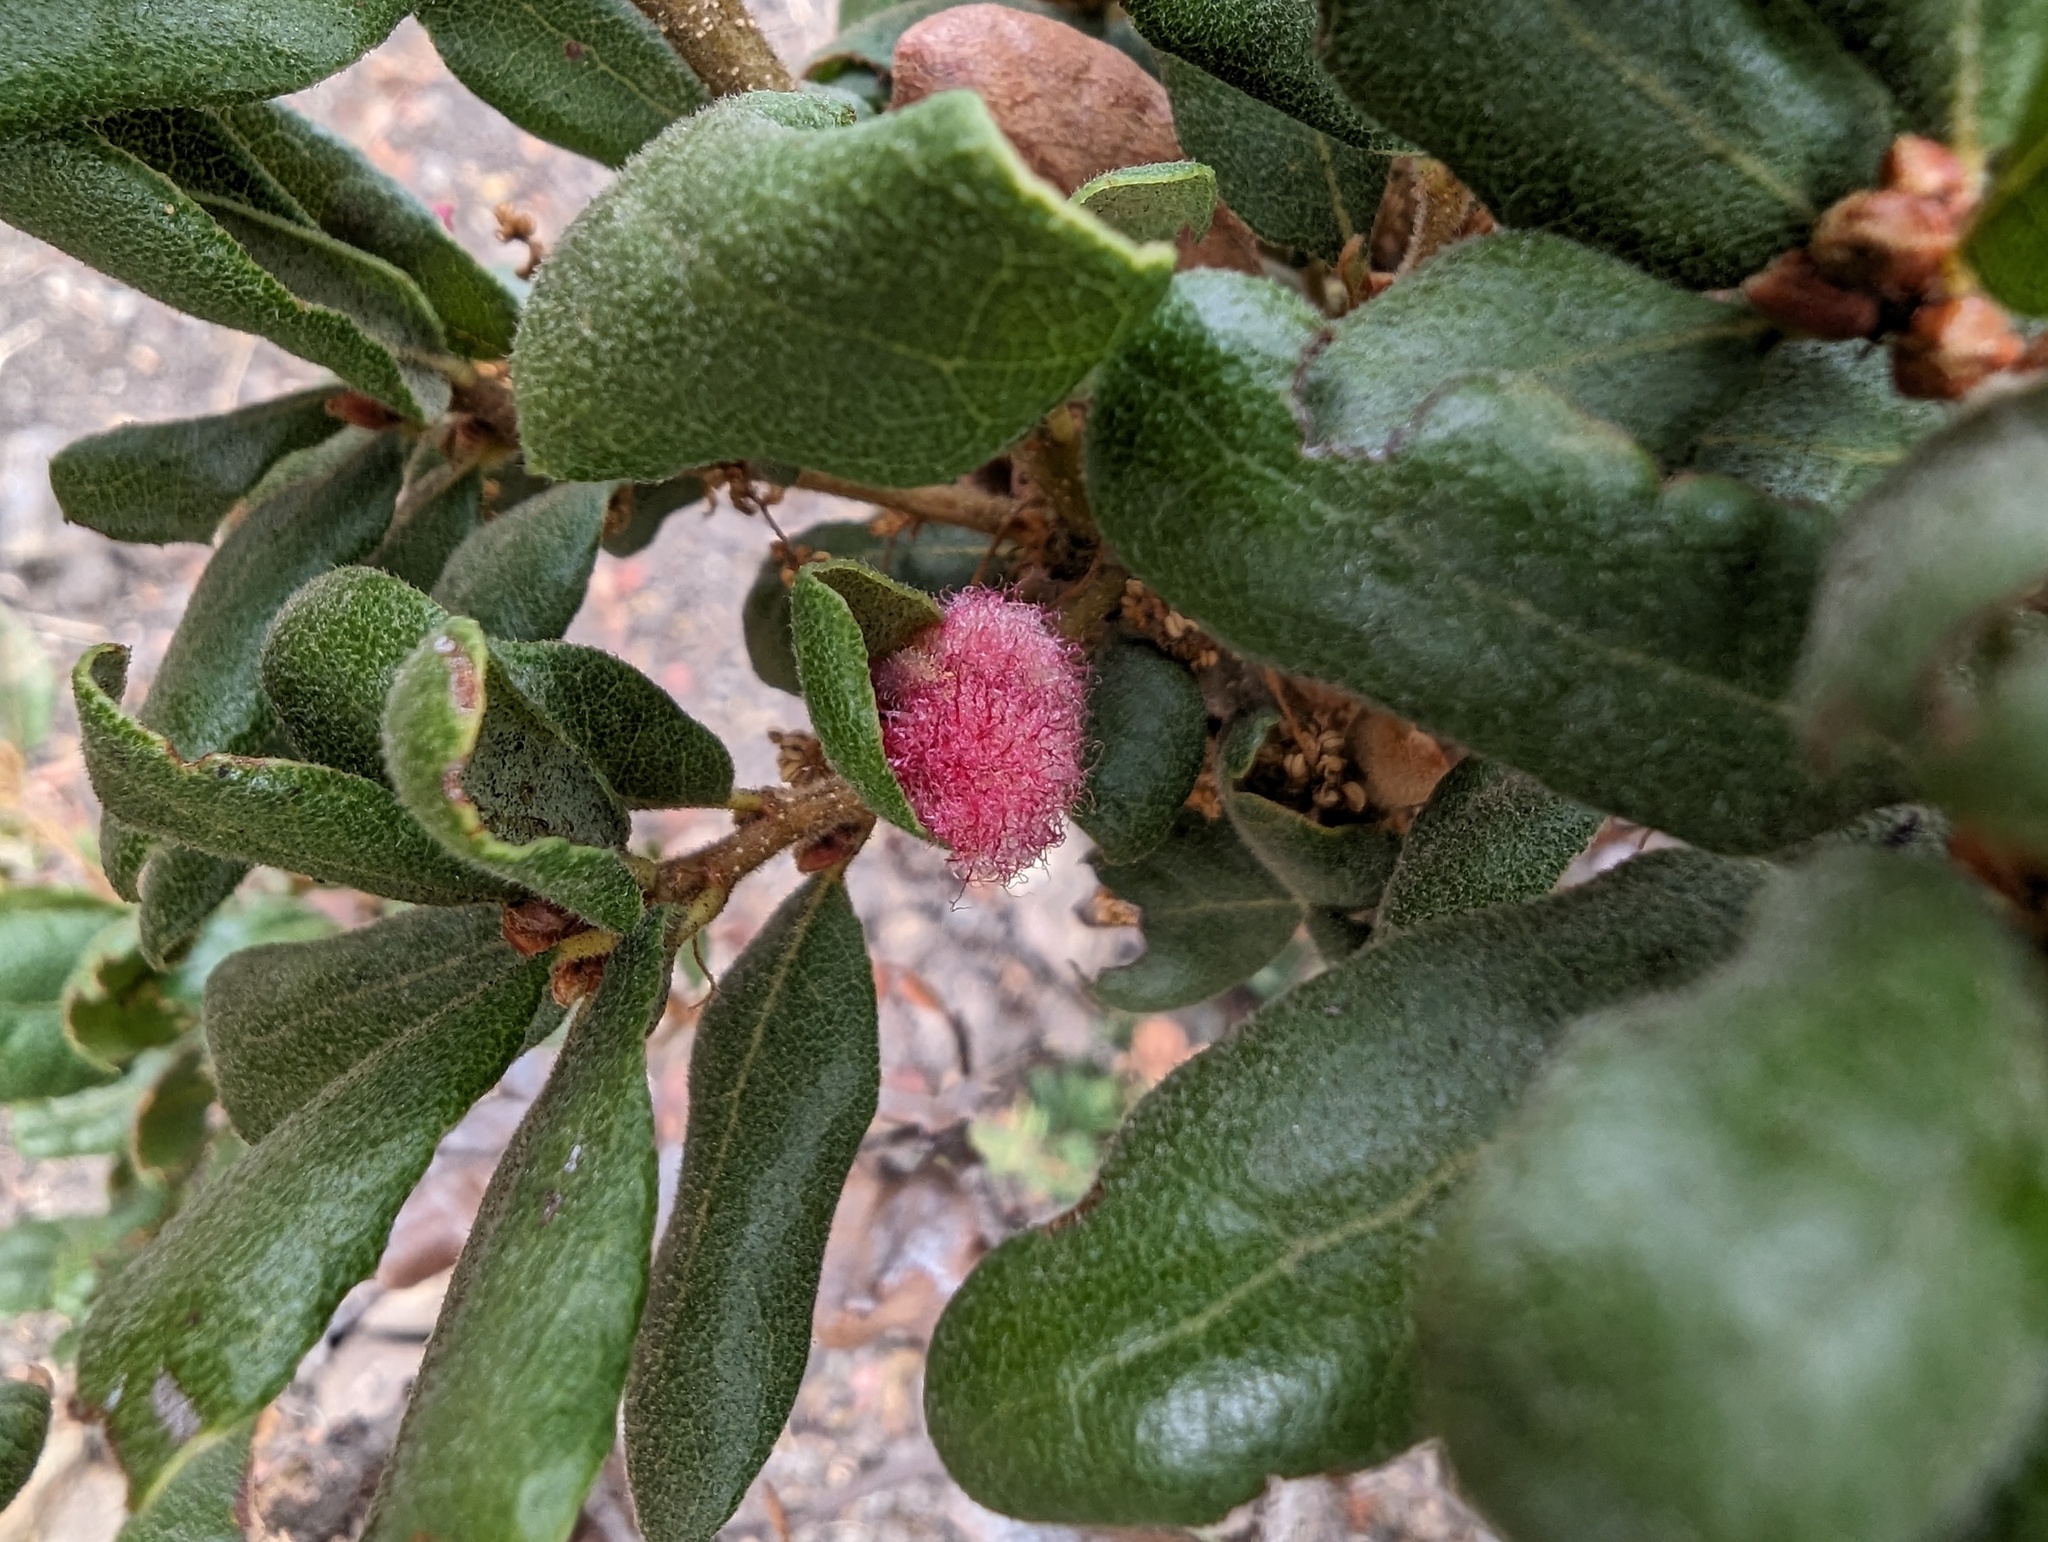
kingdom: Animalia
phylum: Arthropoda
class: Insecta
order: Hymenoptera
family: Cynipidae
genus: Andricus
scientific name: Andricus
